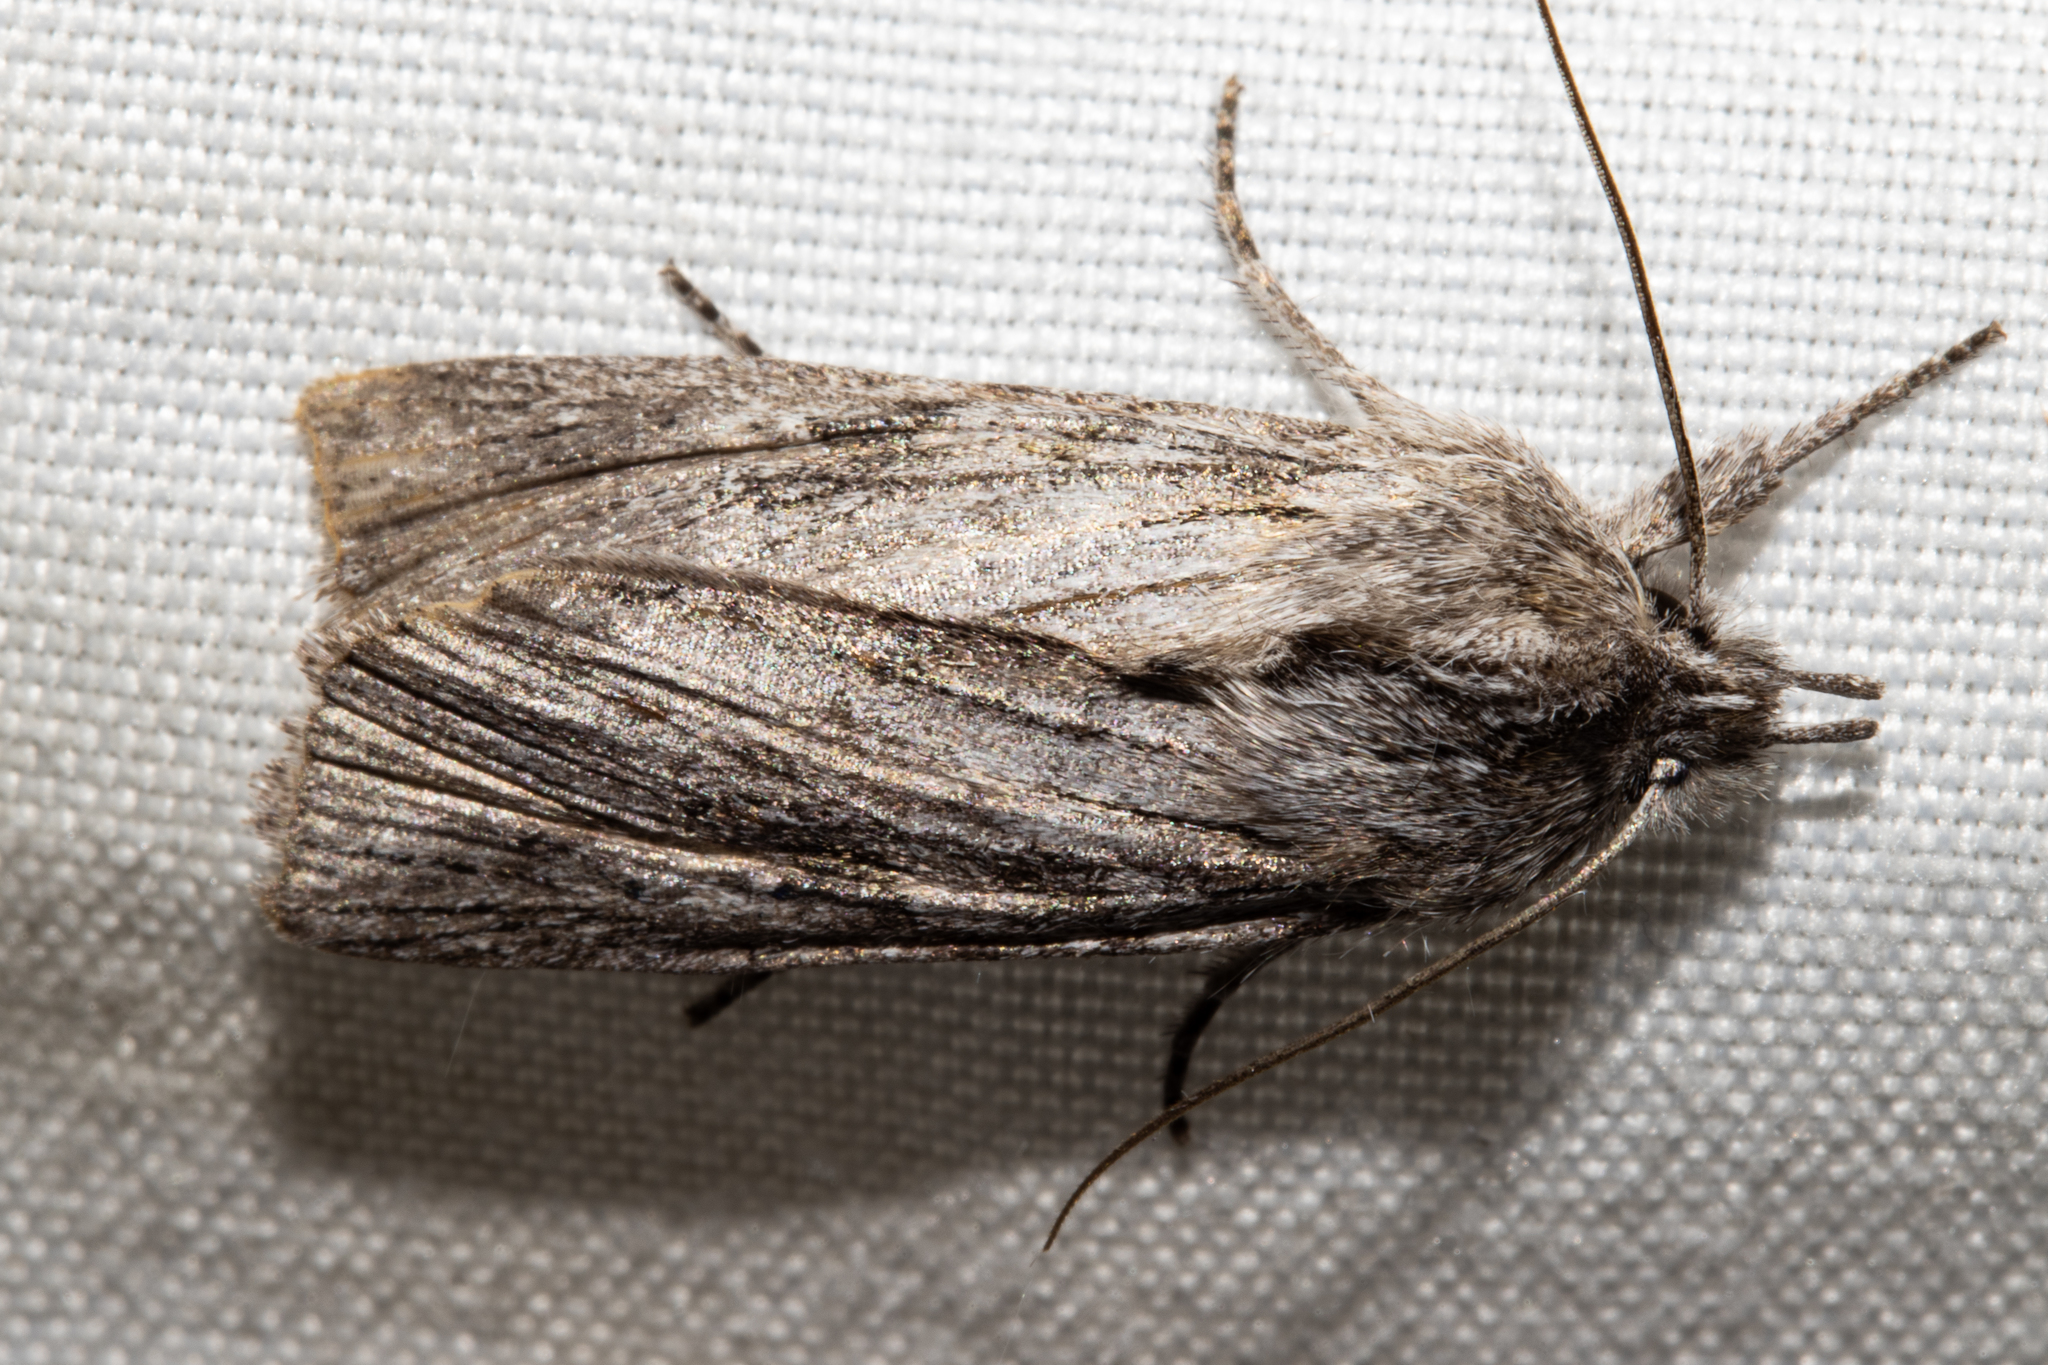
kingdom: Animalia
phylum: Arthropoda
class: Insecta
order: Lepidoptera
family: Noctuidae
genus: Physetica
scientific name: Physetica phricias
